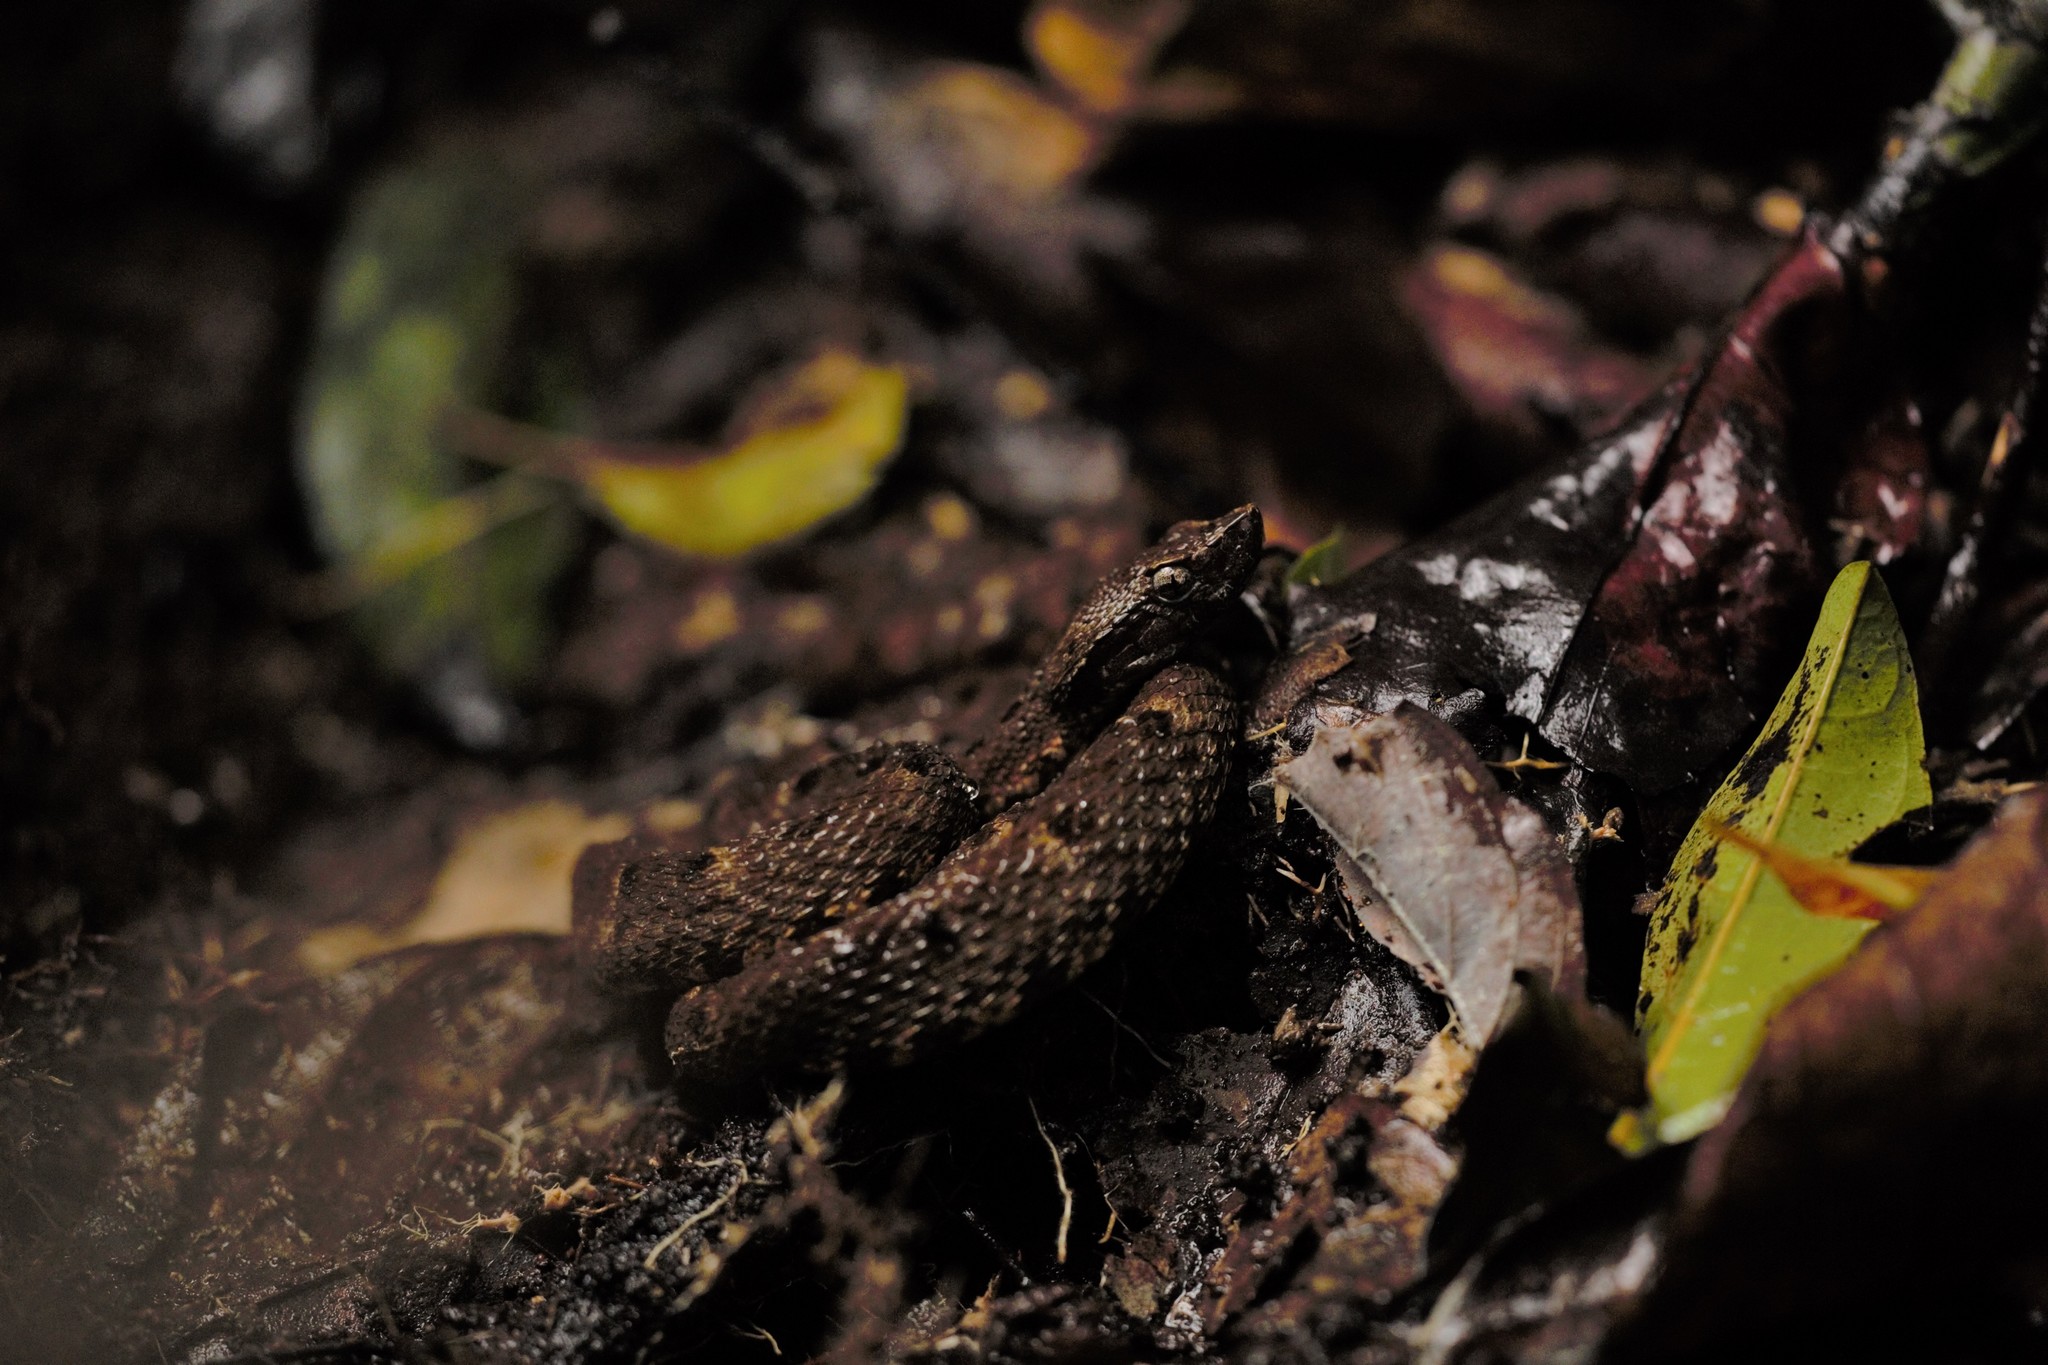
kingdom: Animalia
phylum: Chordata
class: Squamata
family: Viperidae
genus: Bothrops
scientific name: Bothrops atrox
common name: Common lancehead
